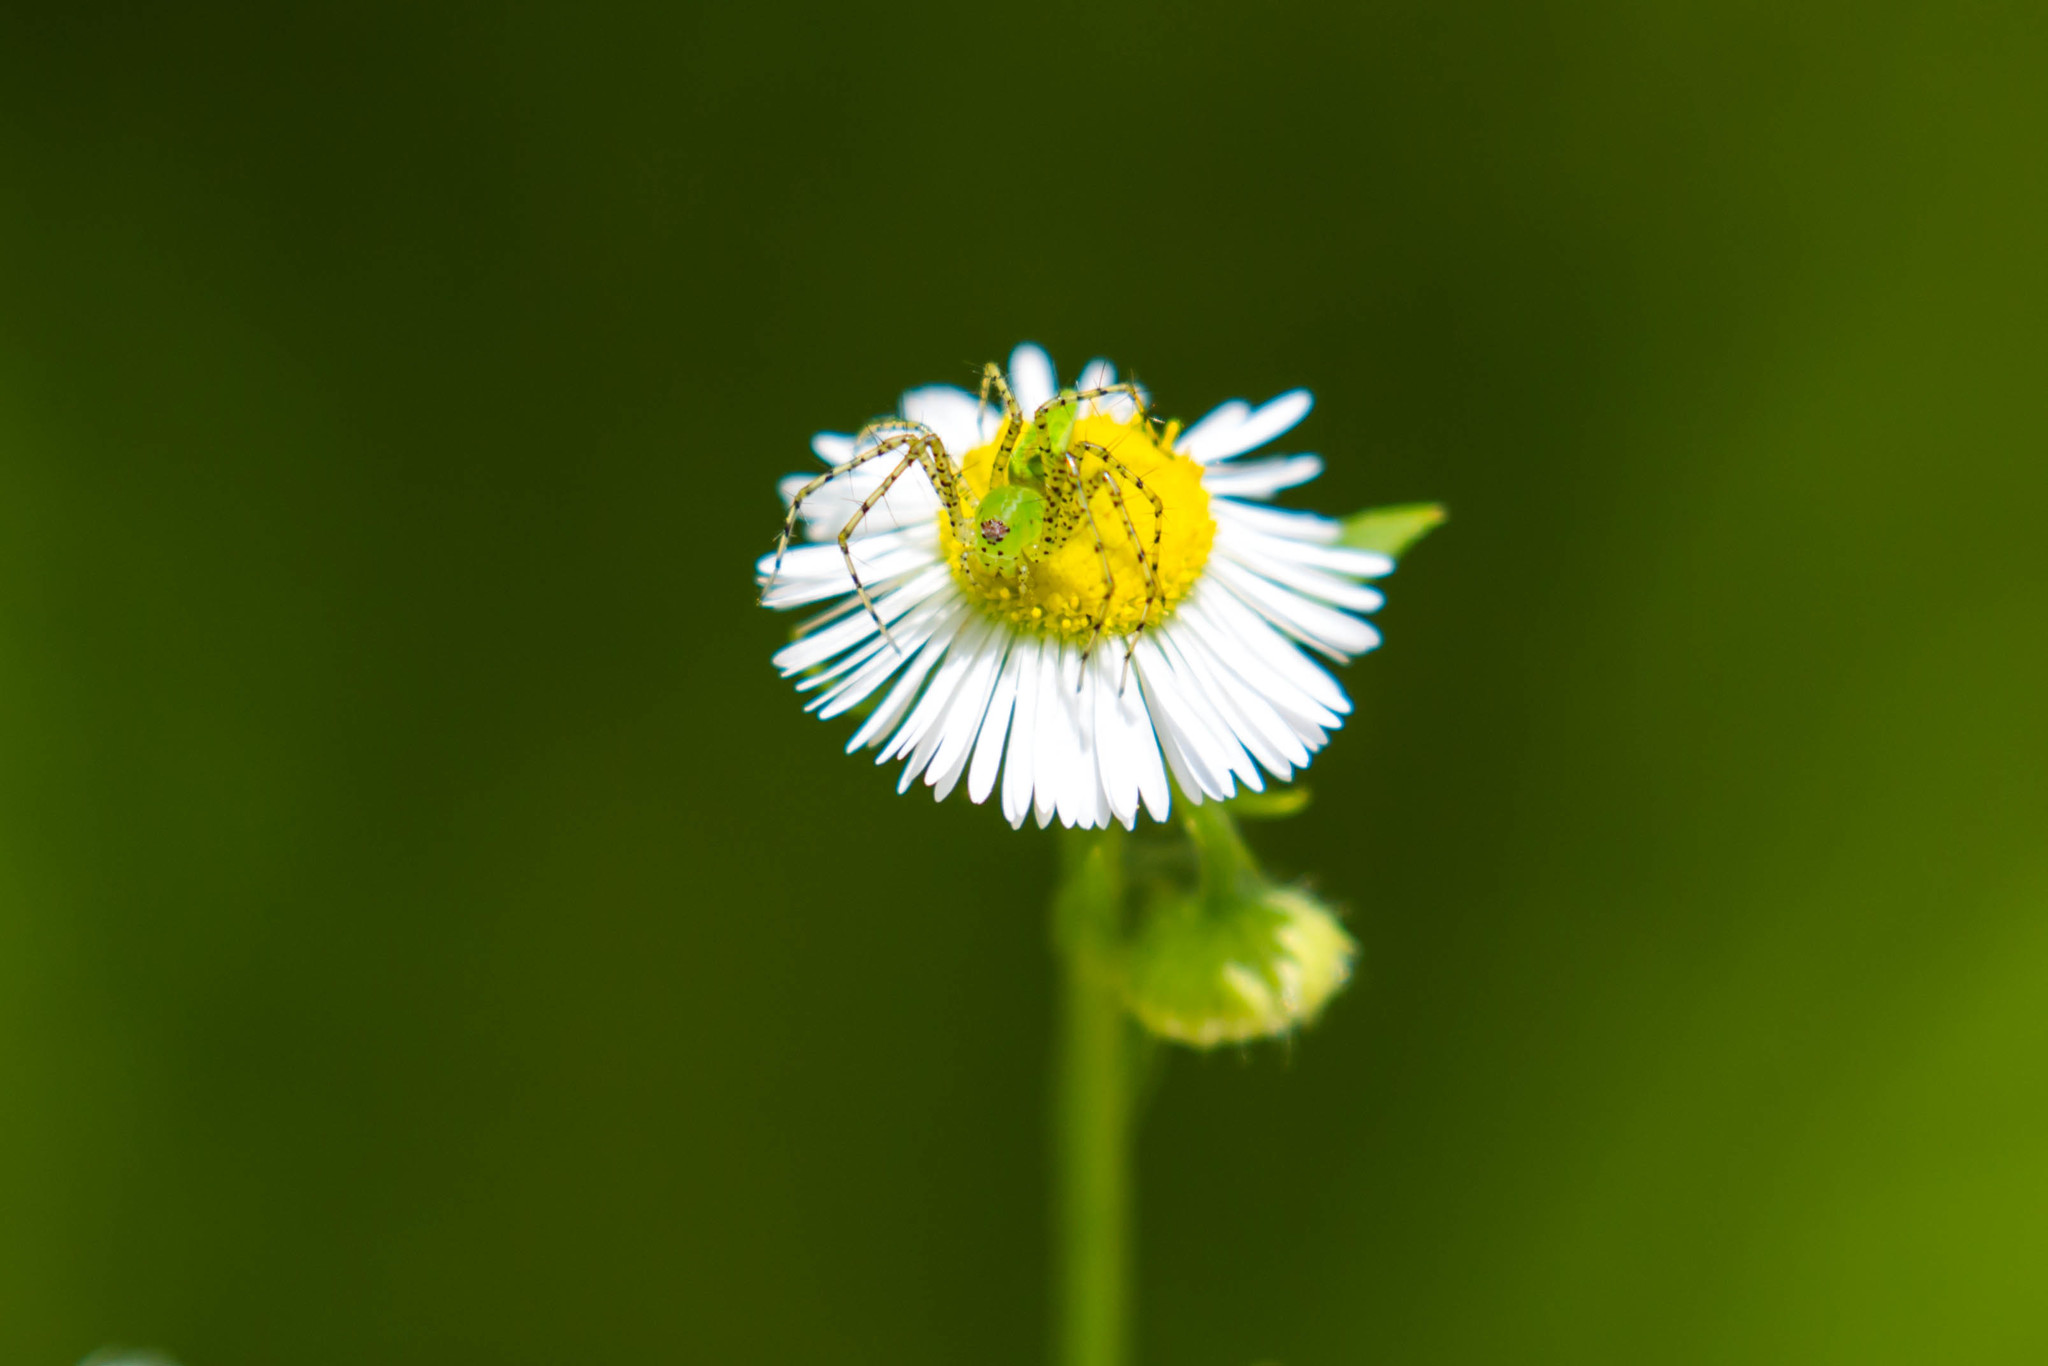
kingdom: Animalia
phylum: Arthropoda
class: Arachnida
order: Araneae
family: Oxyopidae
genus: Peucetia
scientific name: Peucetia viridans
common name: Lynx spiders
